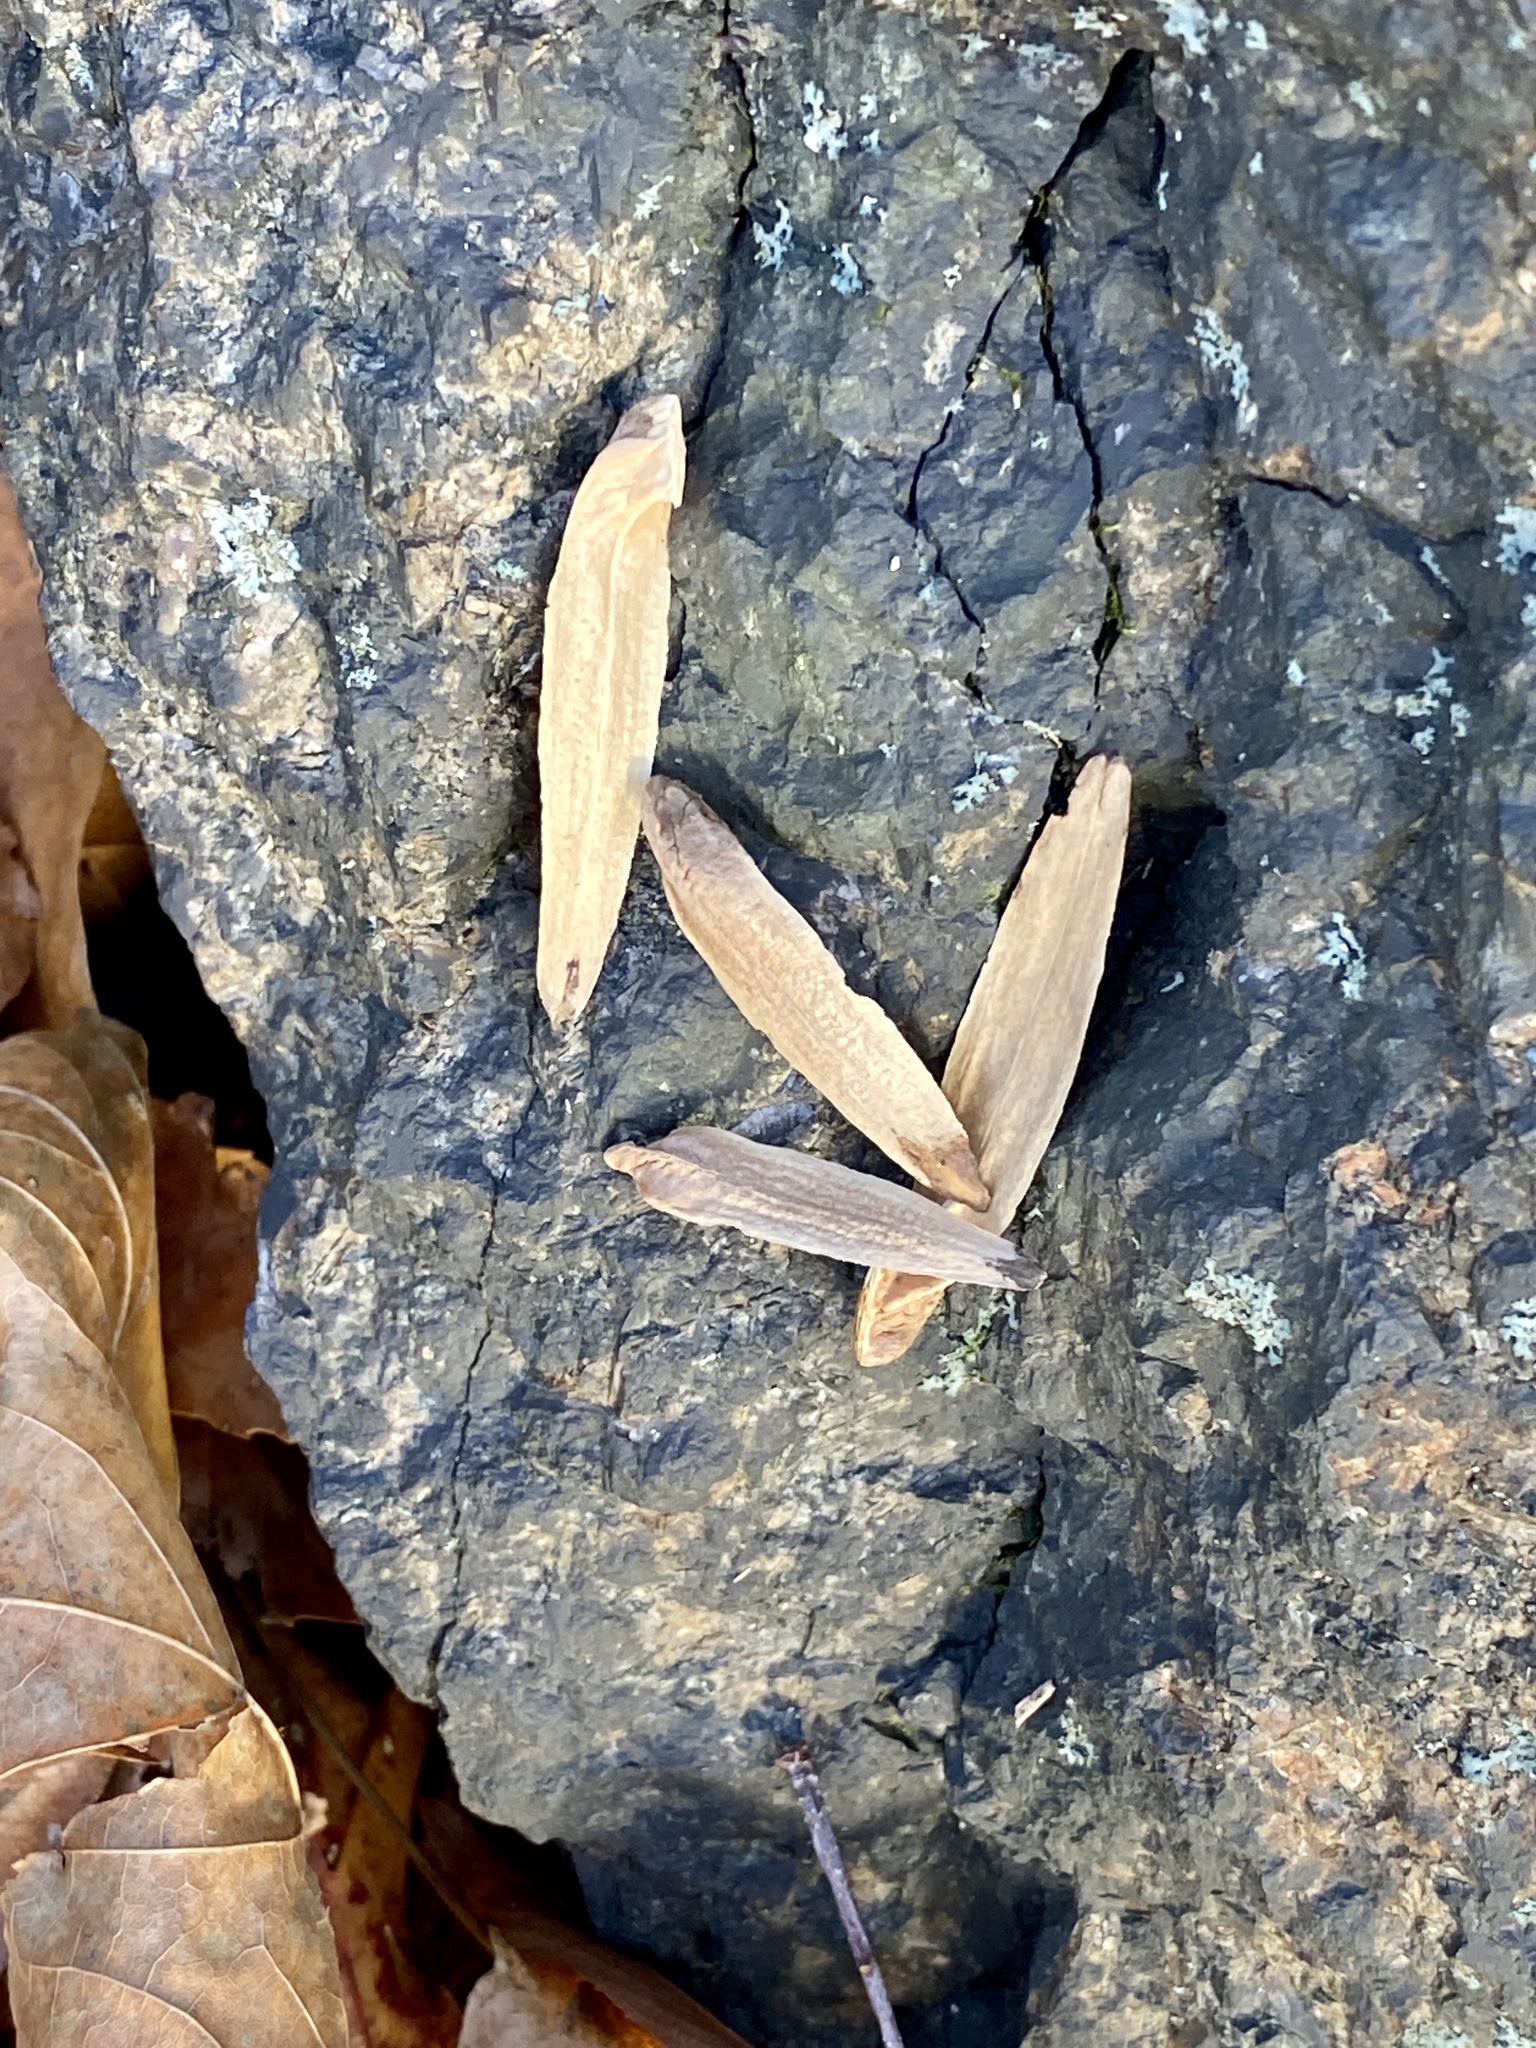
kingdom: Plantae
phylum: Tracheophyta
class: Magnoliopsida
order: Magnoliales
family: Magnoliaceae
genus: Liriodendron
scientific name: Liriodendron tulipifera
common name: Tulip tree
